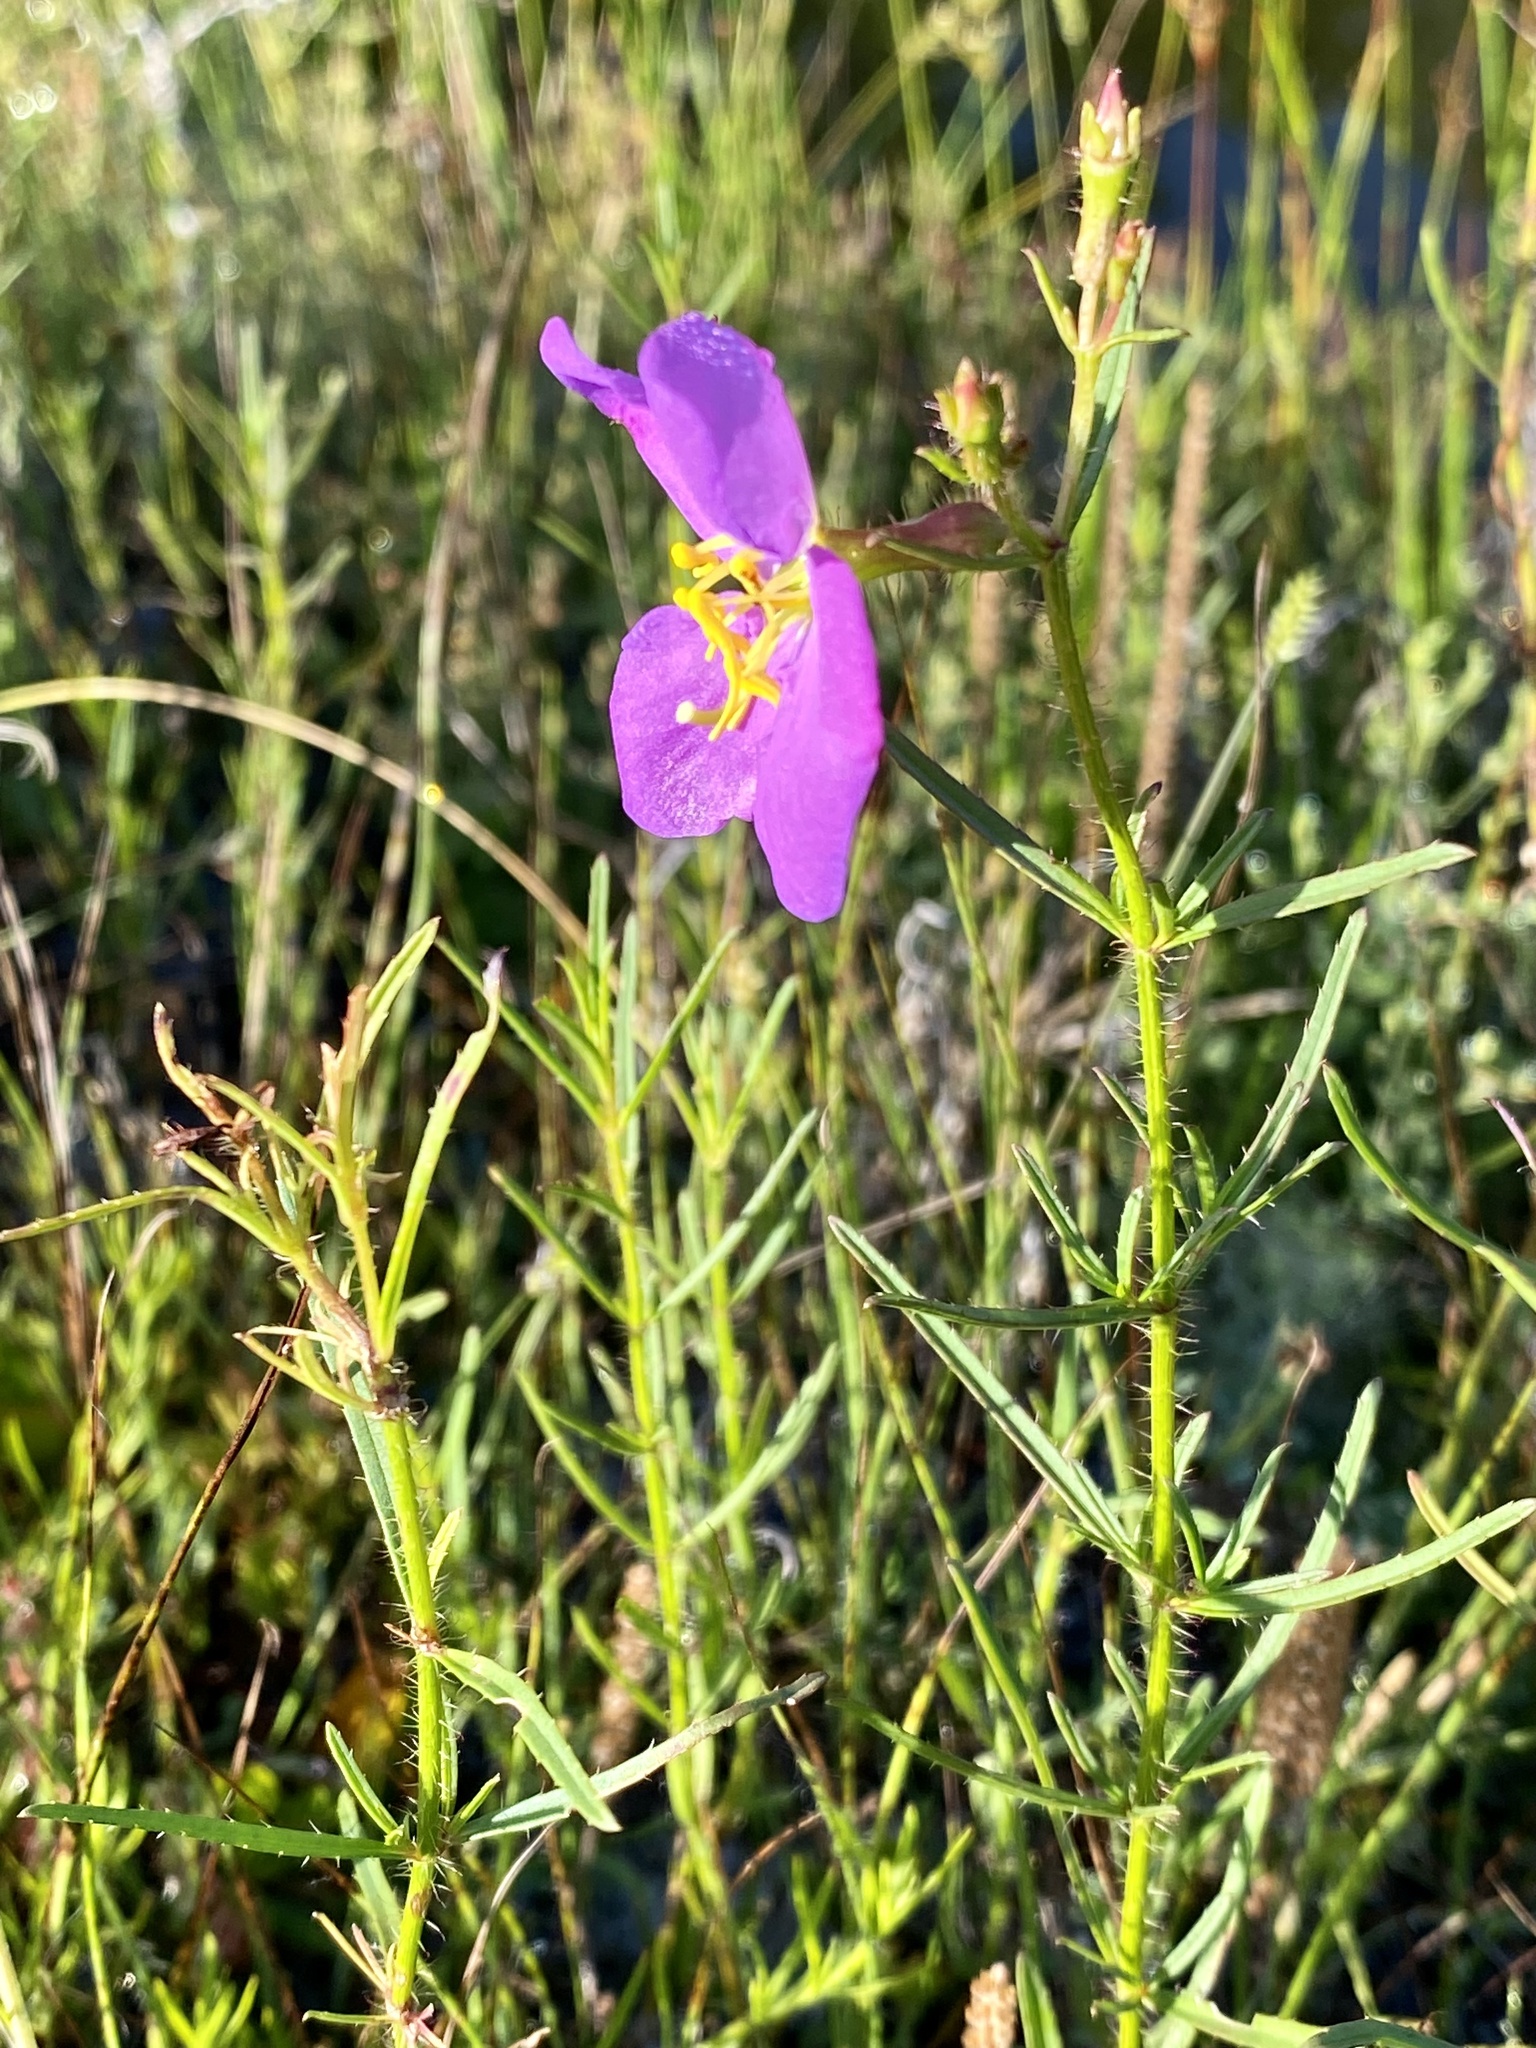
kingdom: Plantae
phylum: Tracheophyta
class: Magnoliopsida
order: Myrtales
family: Melastomataceae
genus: Rhexia
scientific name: Rhexia cubensis
